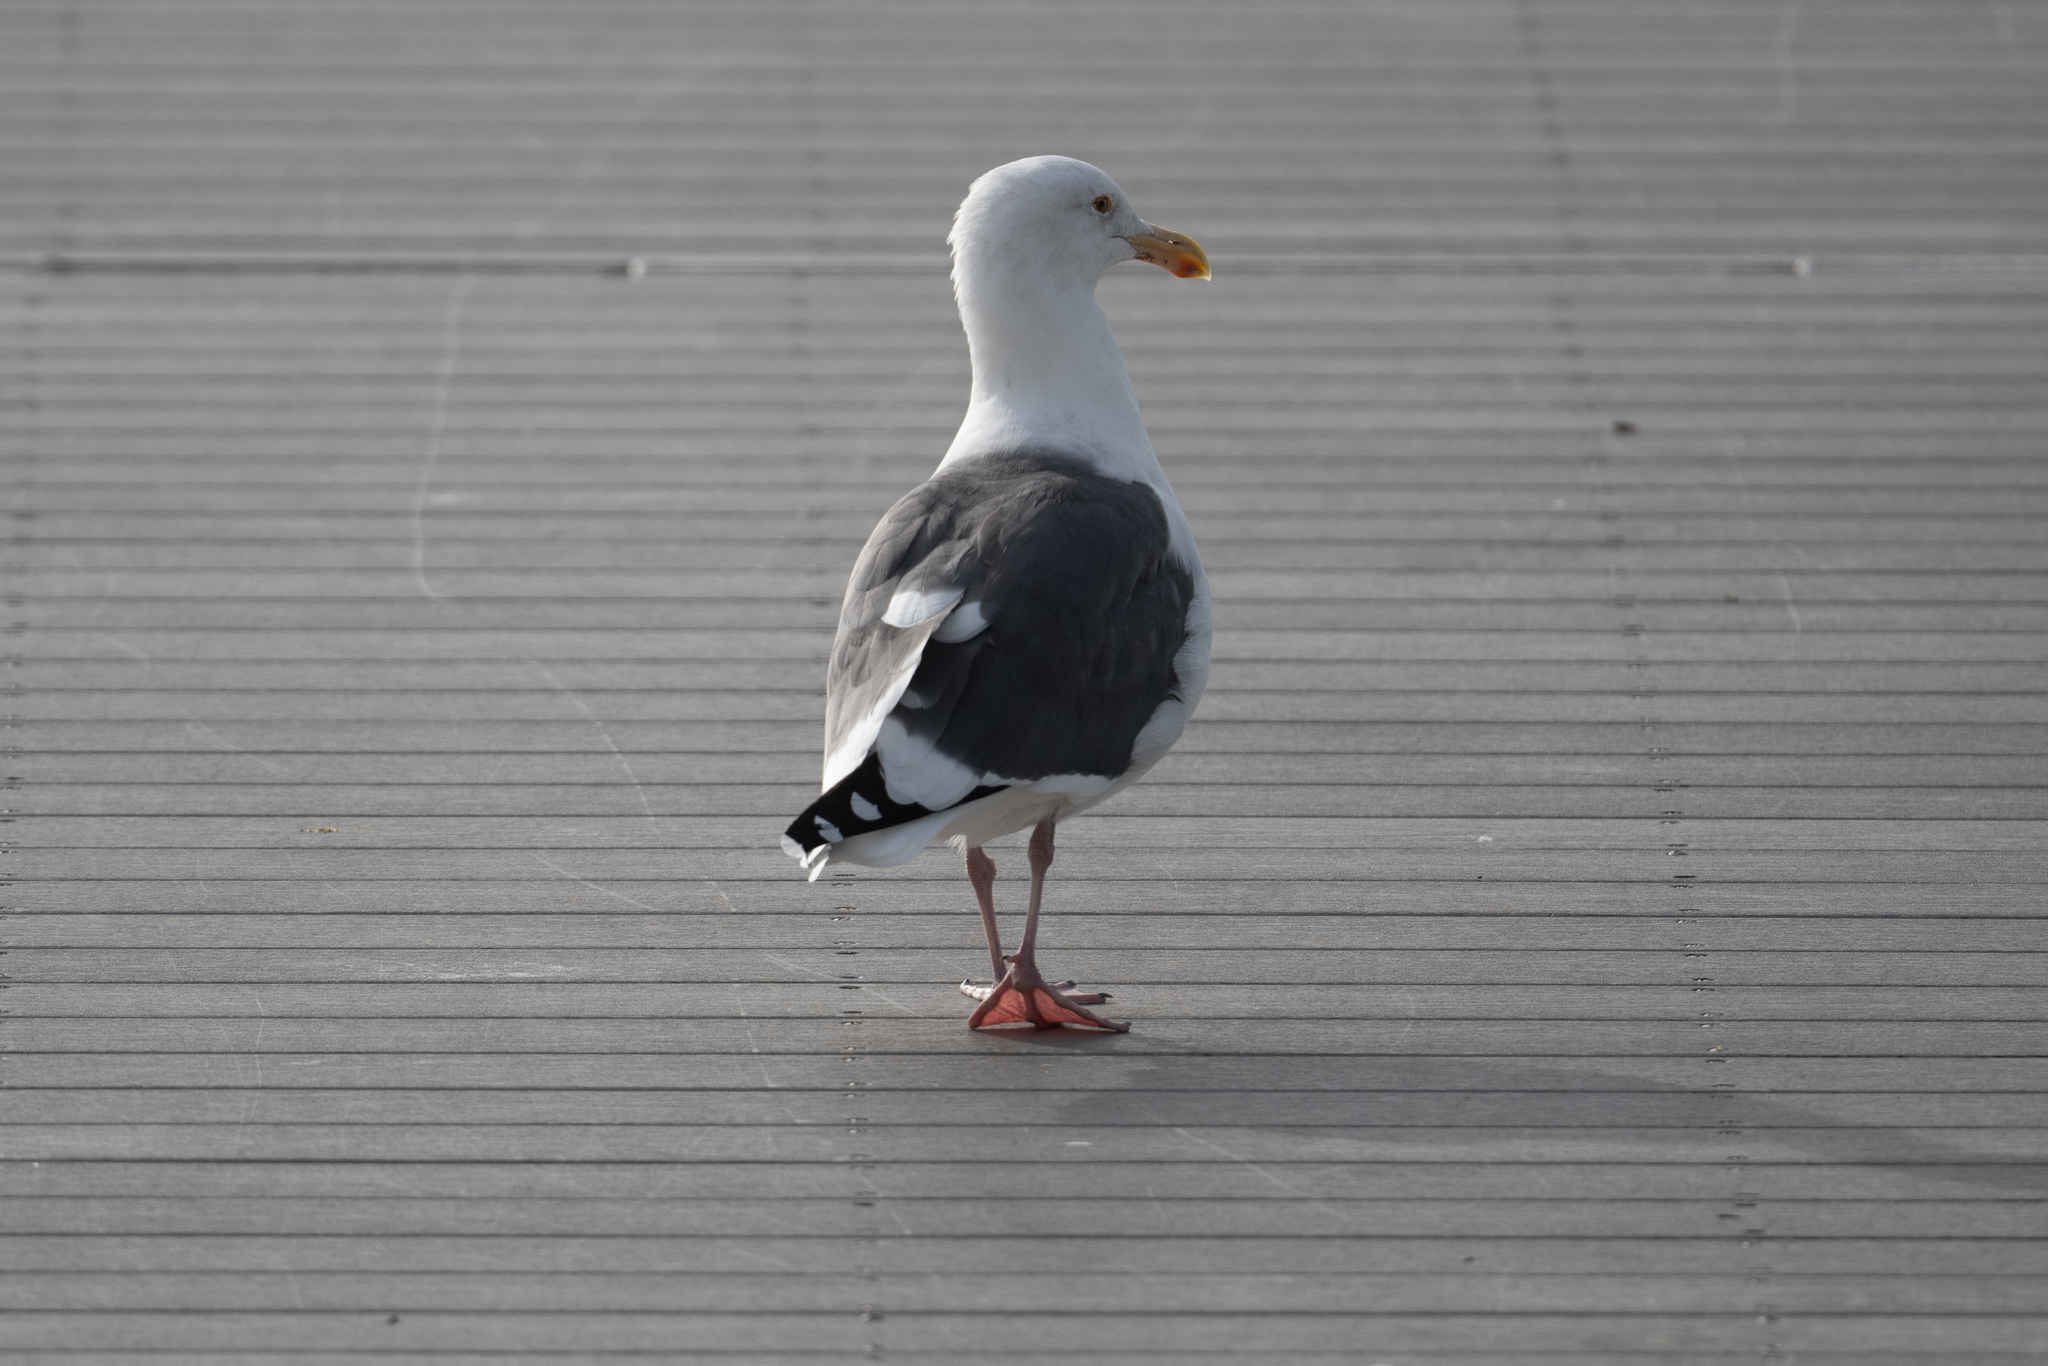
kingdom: Animalia
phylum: Chordata
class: Aves
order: Charadriiformes
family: Laridae
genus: Larus
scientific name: Larus occidentalis
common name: Western gull
